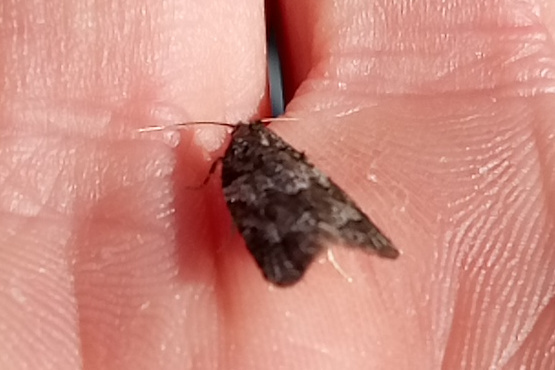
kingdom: Animalia
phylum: Arthropoda
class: Insecta
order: Lepidoptera
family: Tortricidae
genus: Acleris
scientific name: Acleris gloveranus
